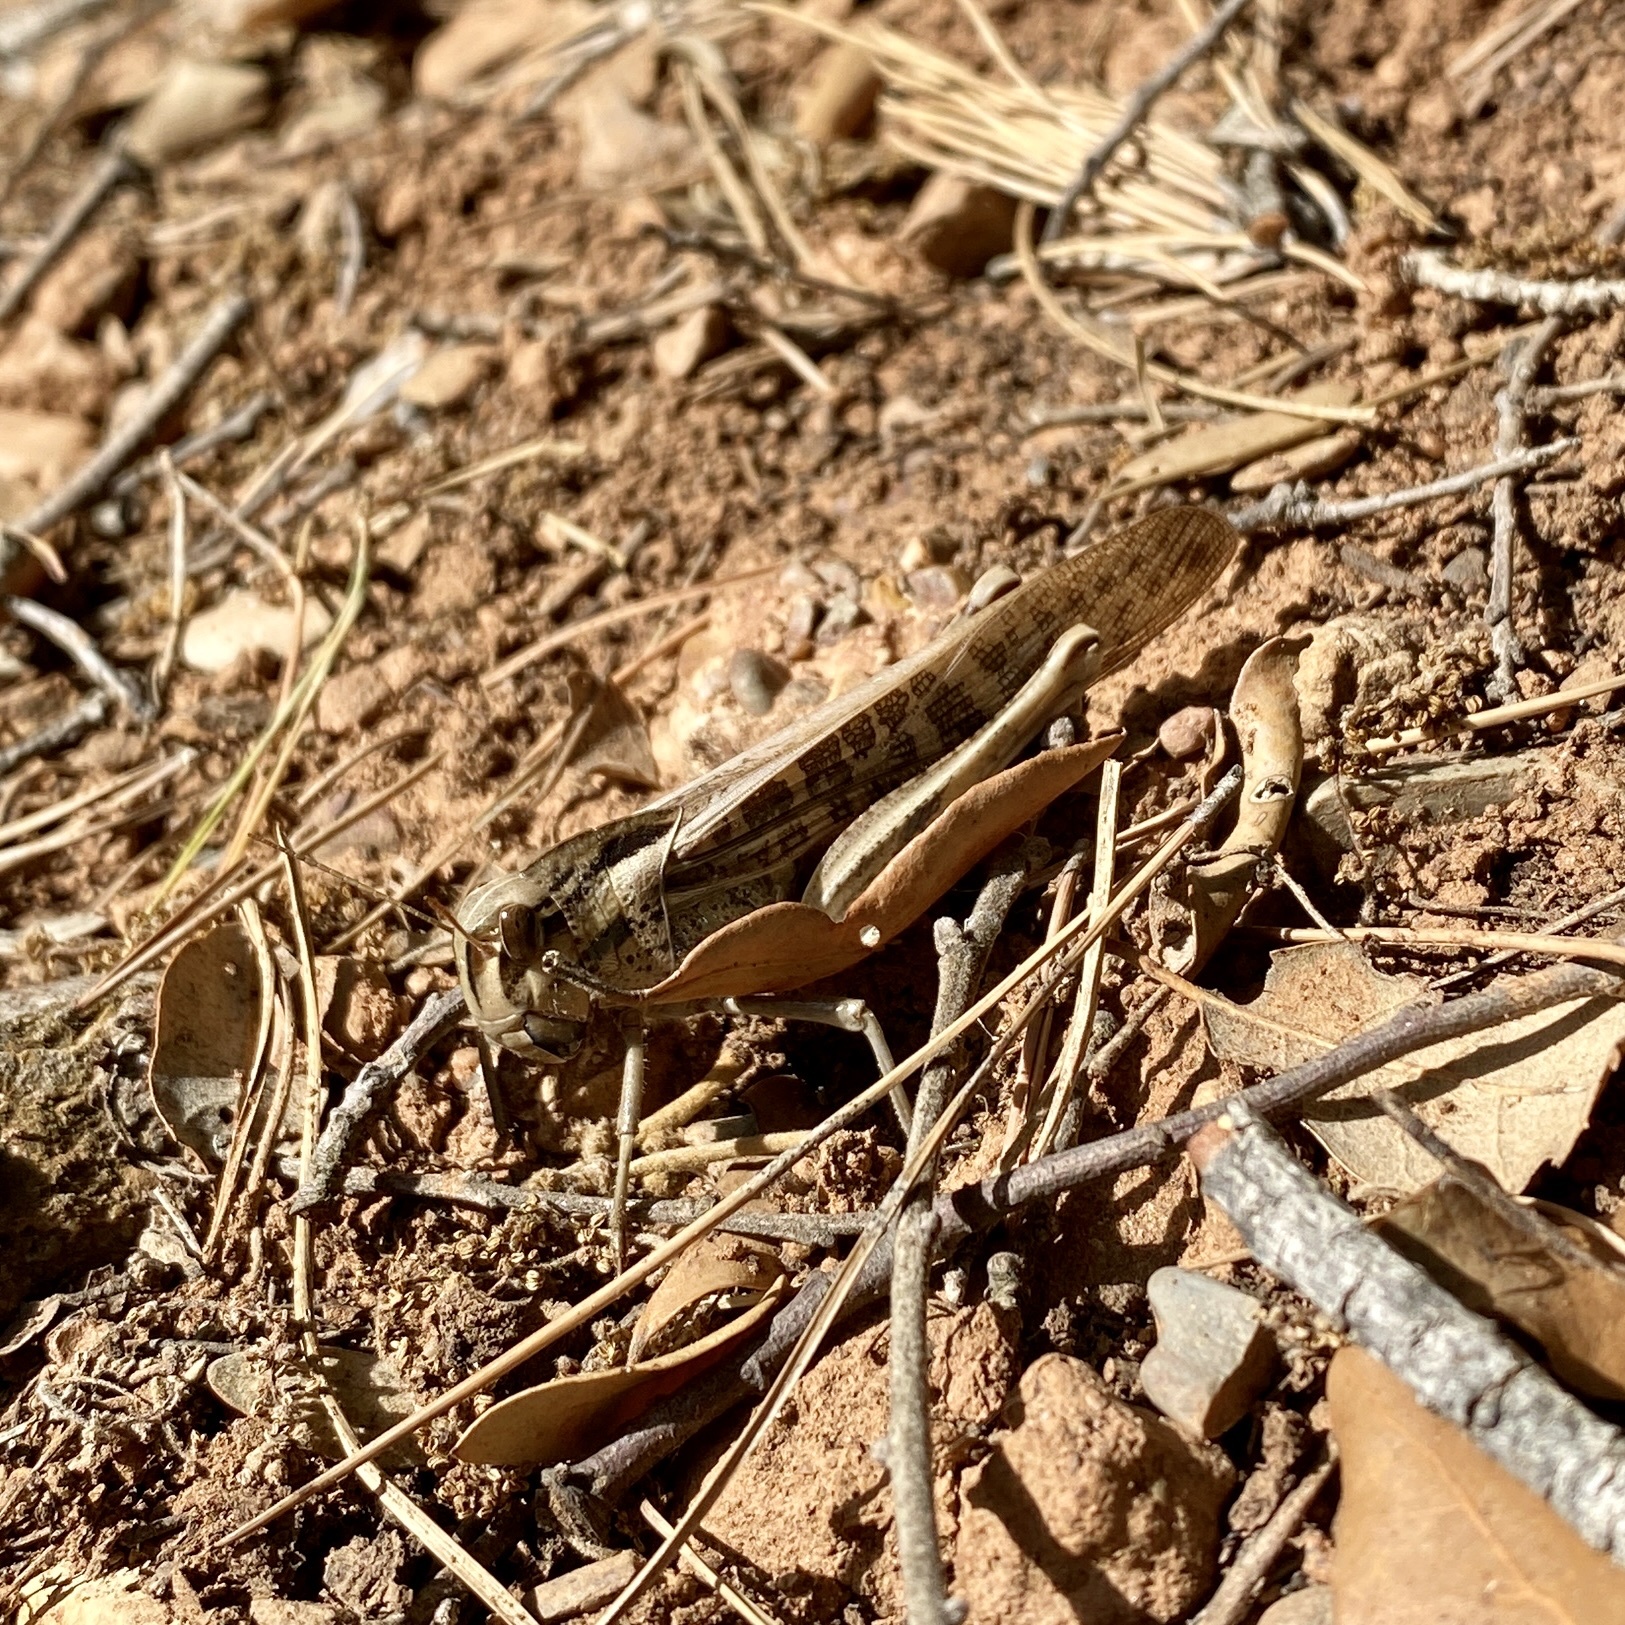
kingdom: Animalia
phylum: Arthropoda
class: Insecta
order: Orthoptera
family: Acrididae
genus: Locusta
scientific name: Locusta migratoria
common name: Migratory locust
